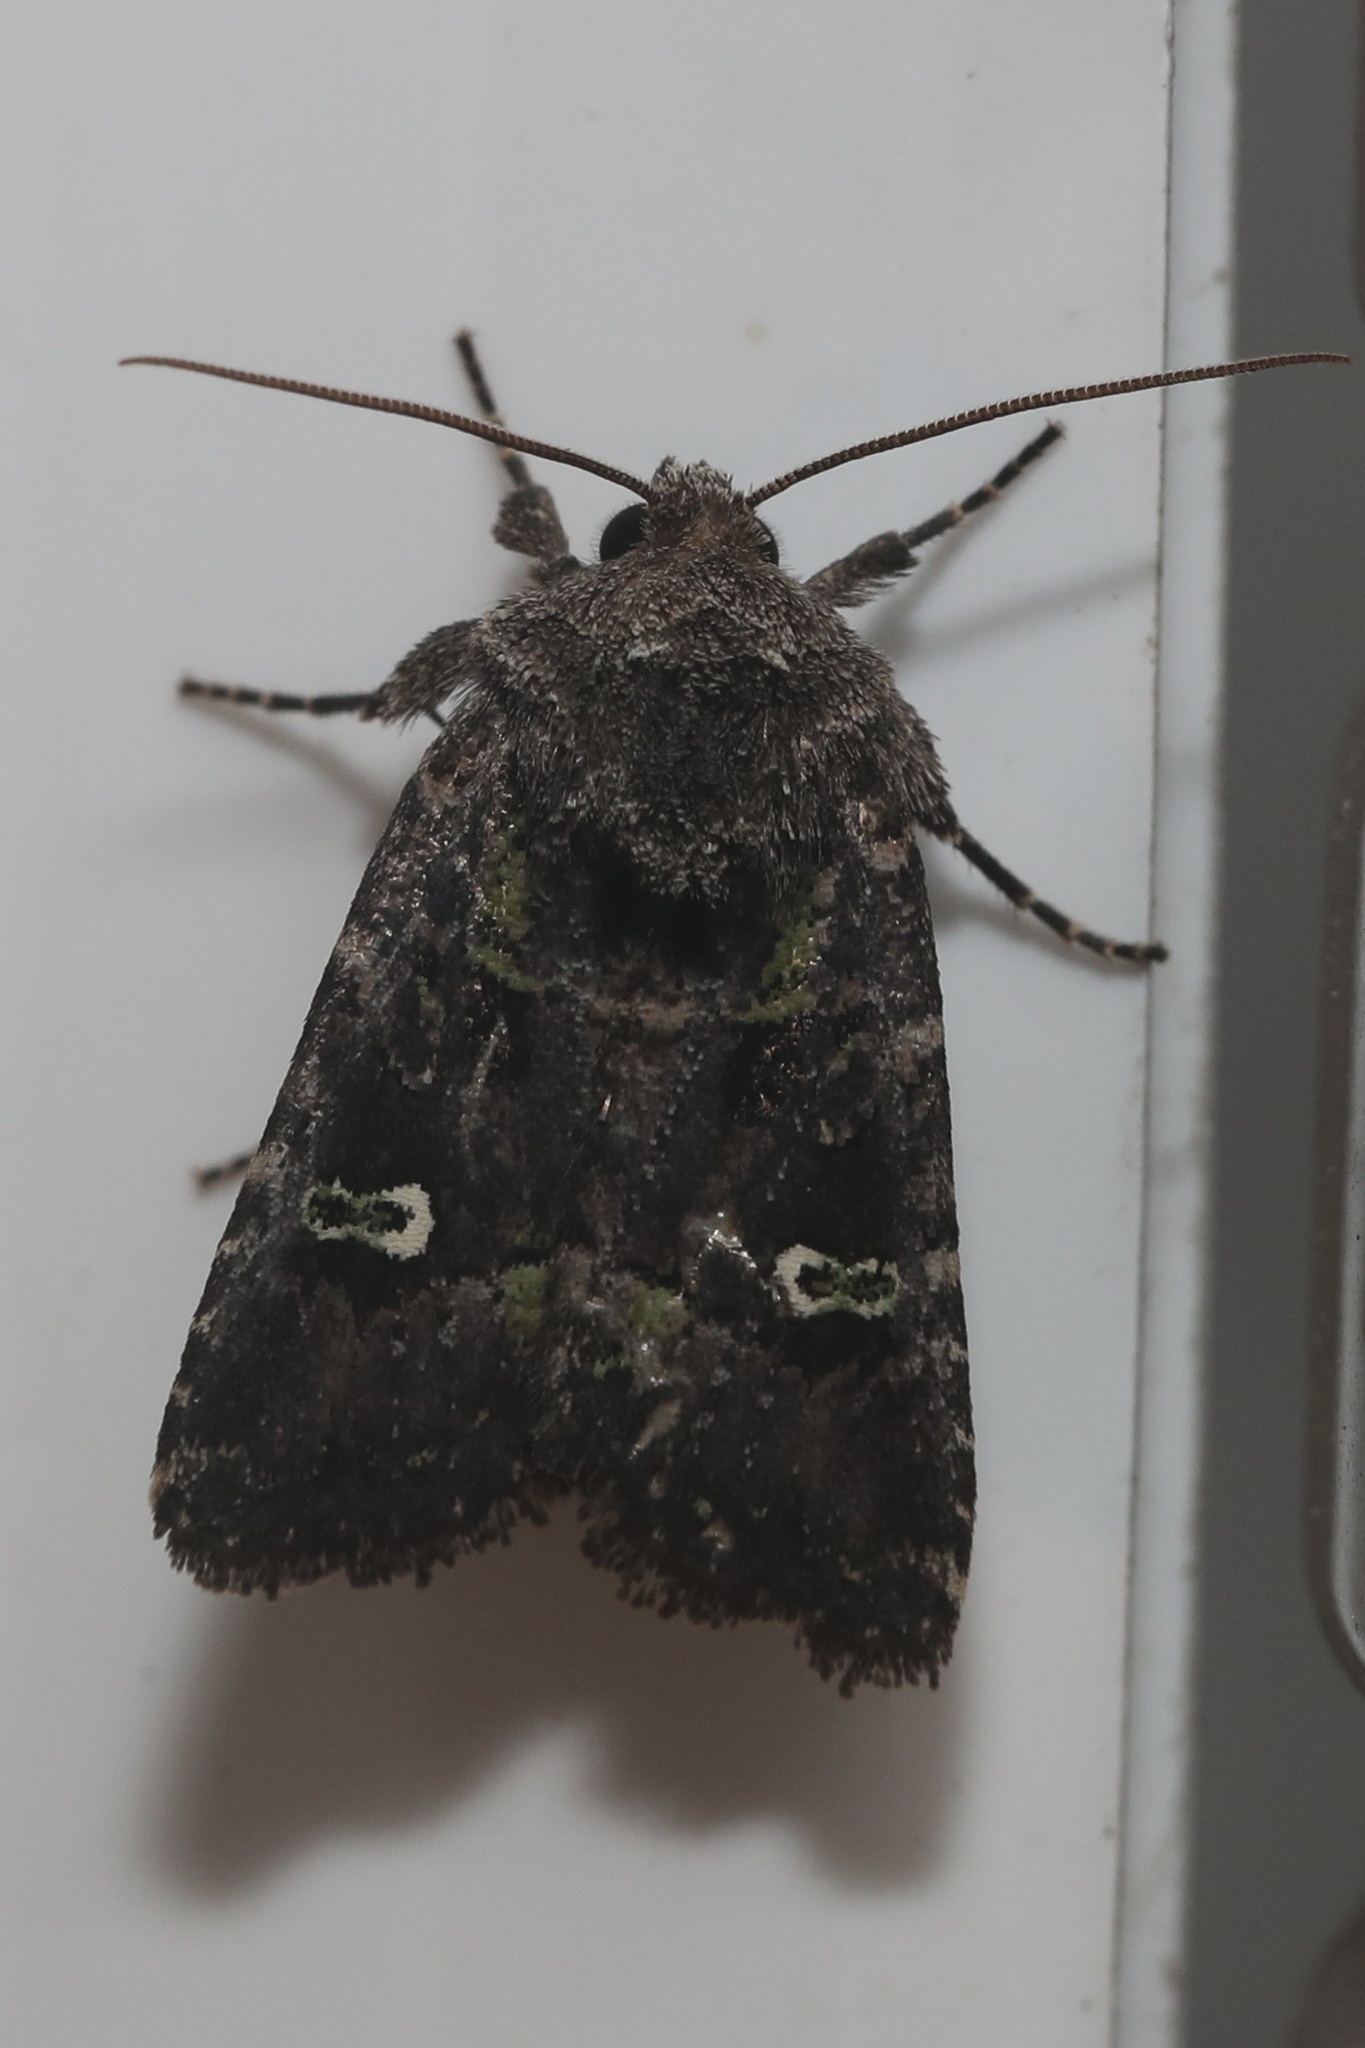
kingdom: Animalia
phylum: Arthropoda
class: Insecta
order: Lepidoptera
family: Noctuidae
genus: Lacinipolia
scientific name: Lacinipolia renigera
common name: Kidney-spotted minor
